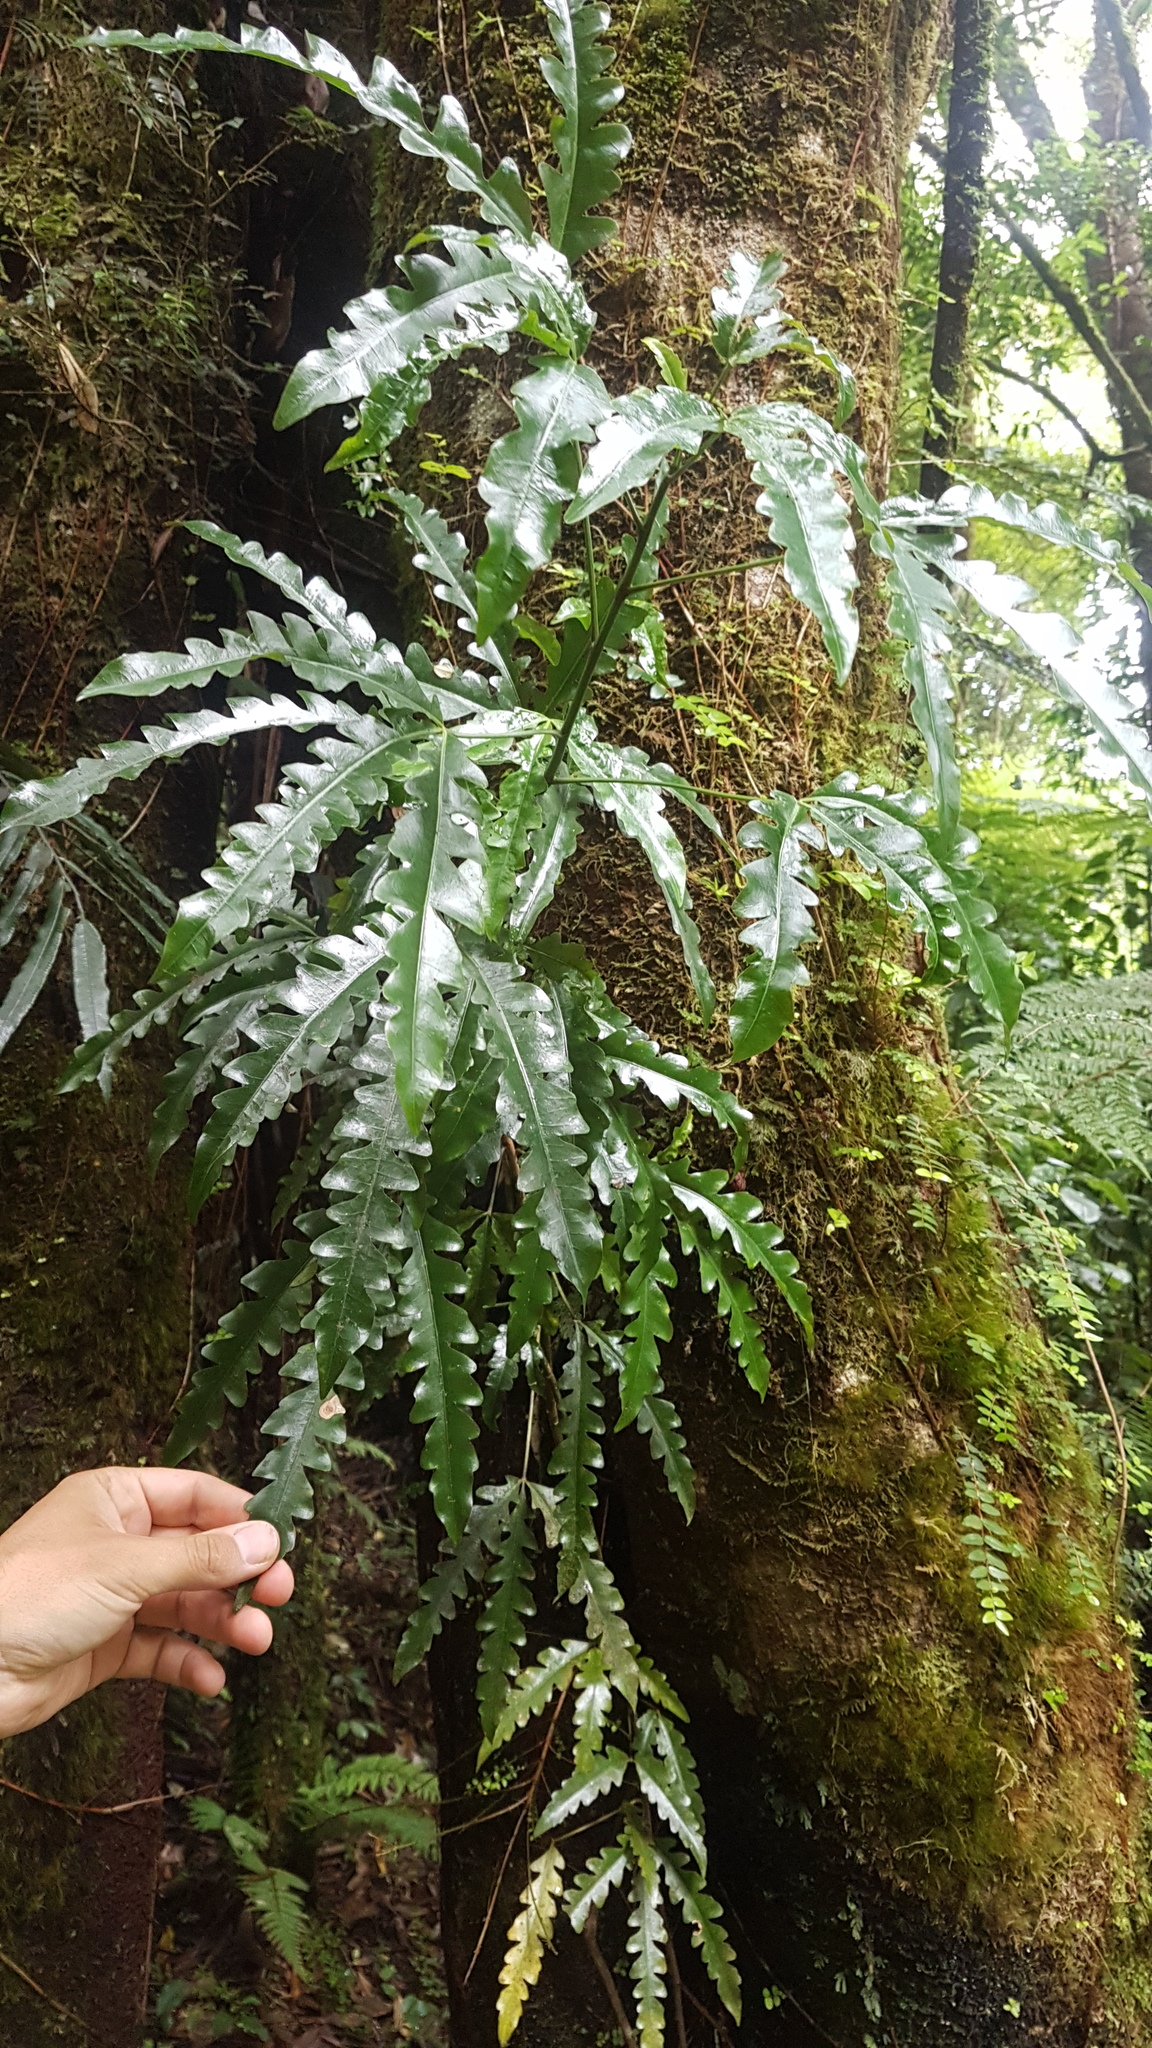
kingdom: Plantae
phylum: Tracheophyta
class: Magnoliopsida
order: Apiales
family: Araliaceae
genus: Raukaua
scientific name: Raukaua edgerleyi
